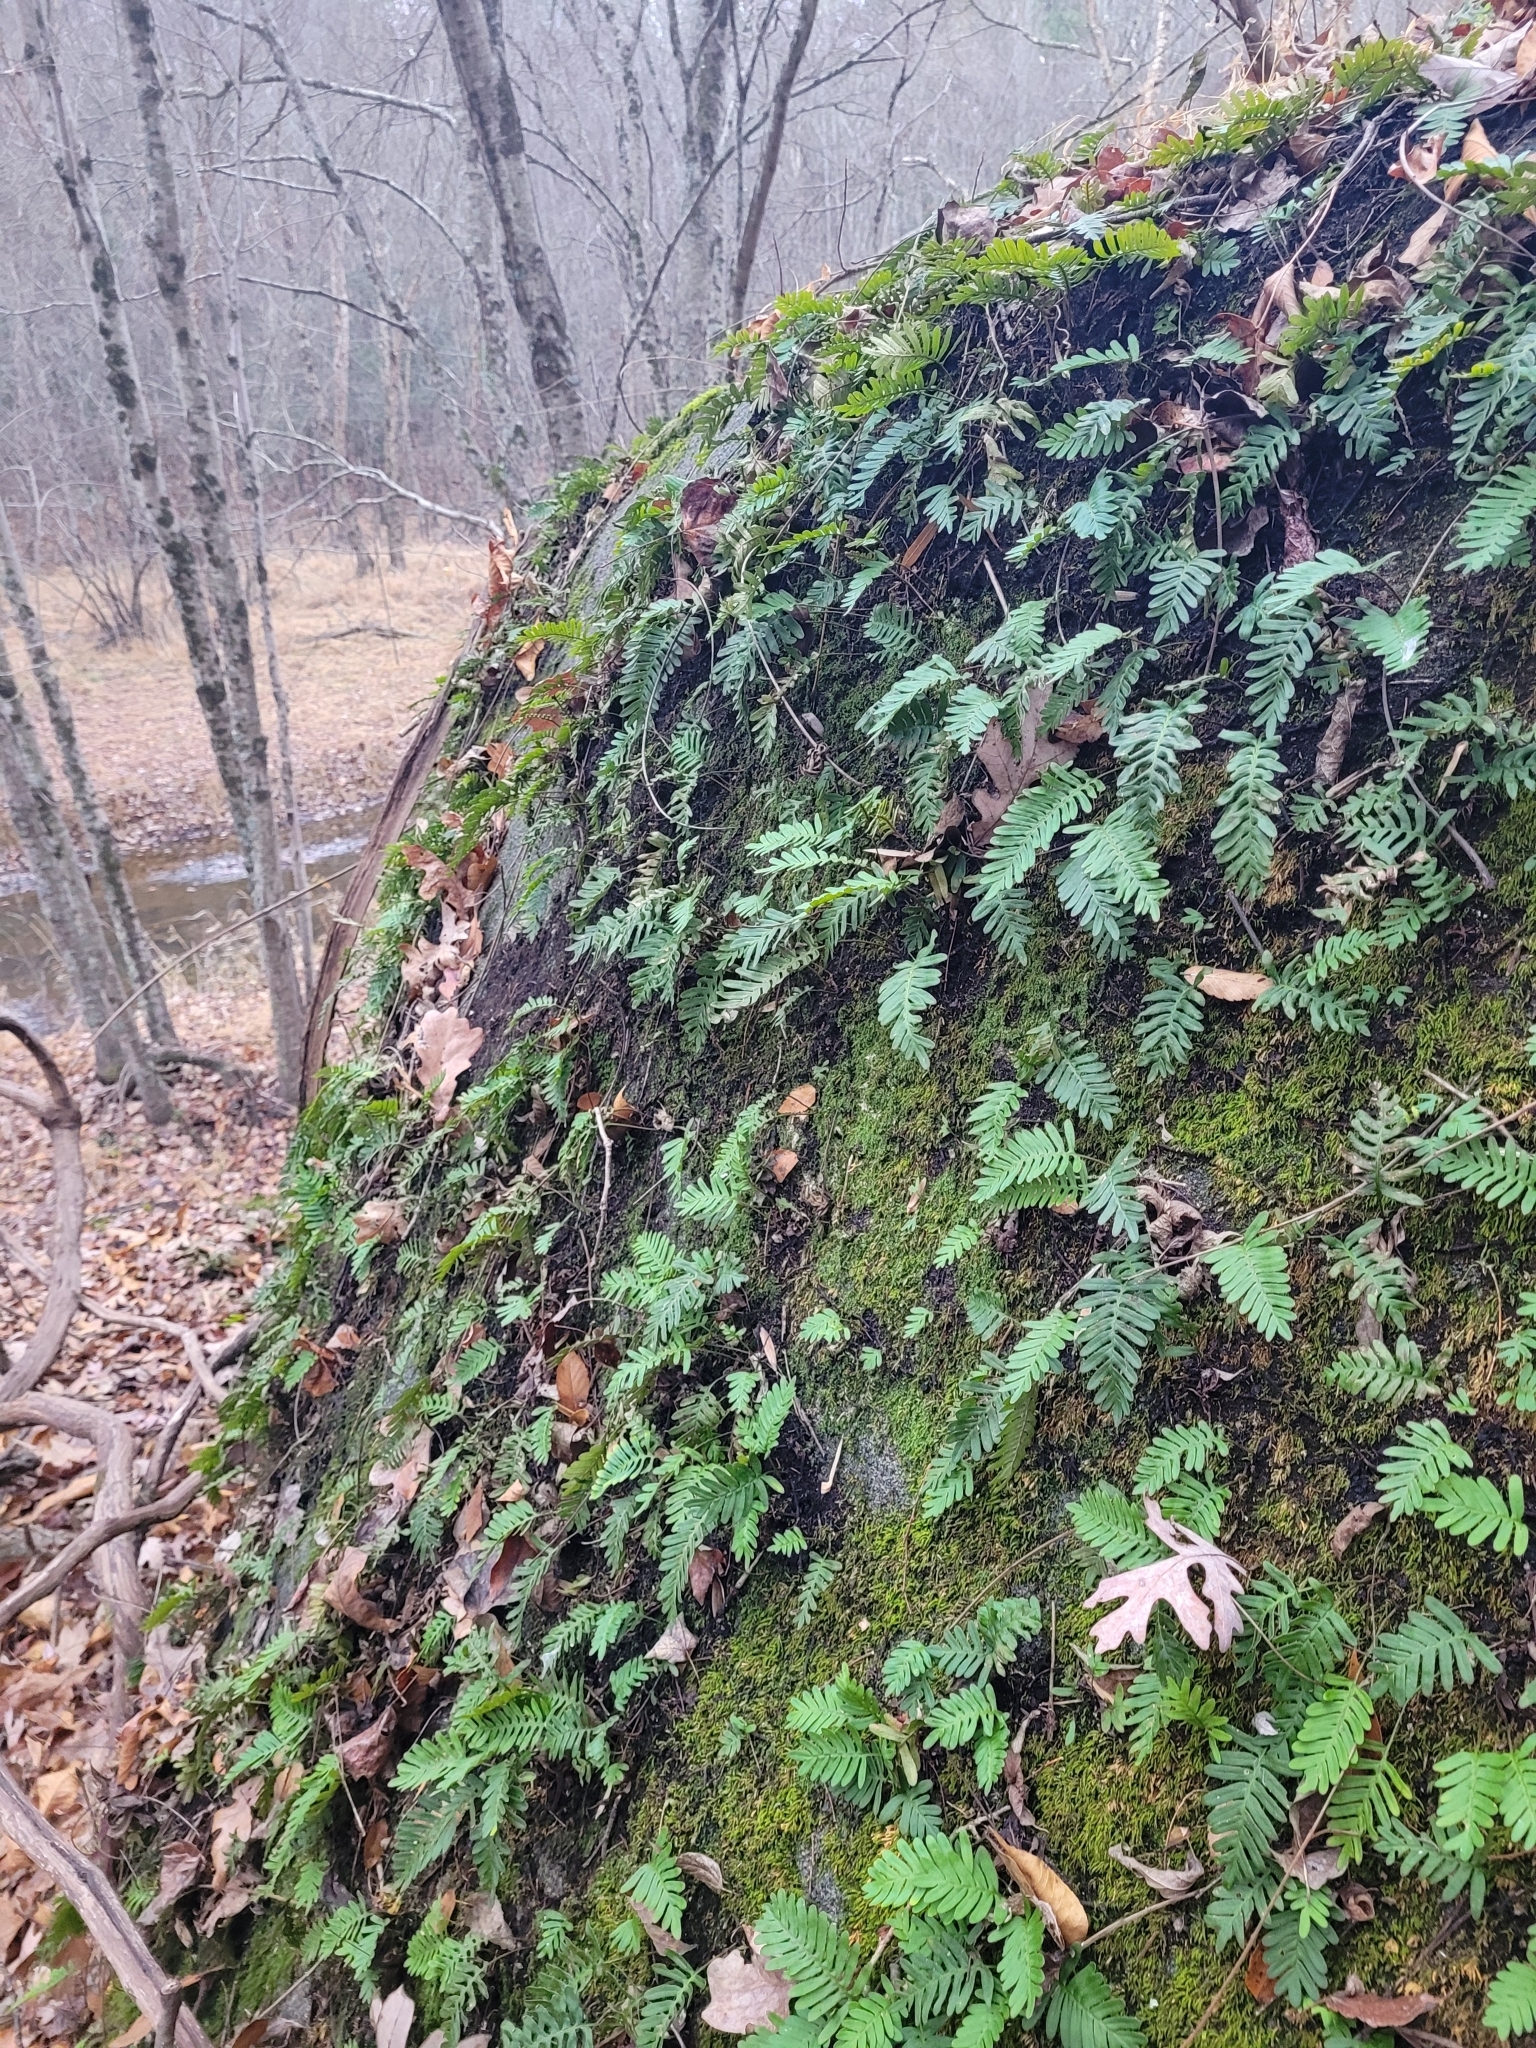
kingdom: Plantae
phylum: Tracheophyta
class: Polypodiopsida
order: Polypodiales
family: Polypodiaceae
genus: Pleopeltis
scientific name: Pleopeltis michauxiana
